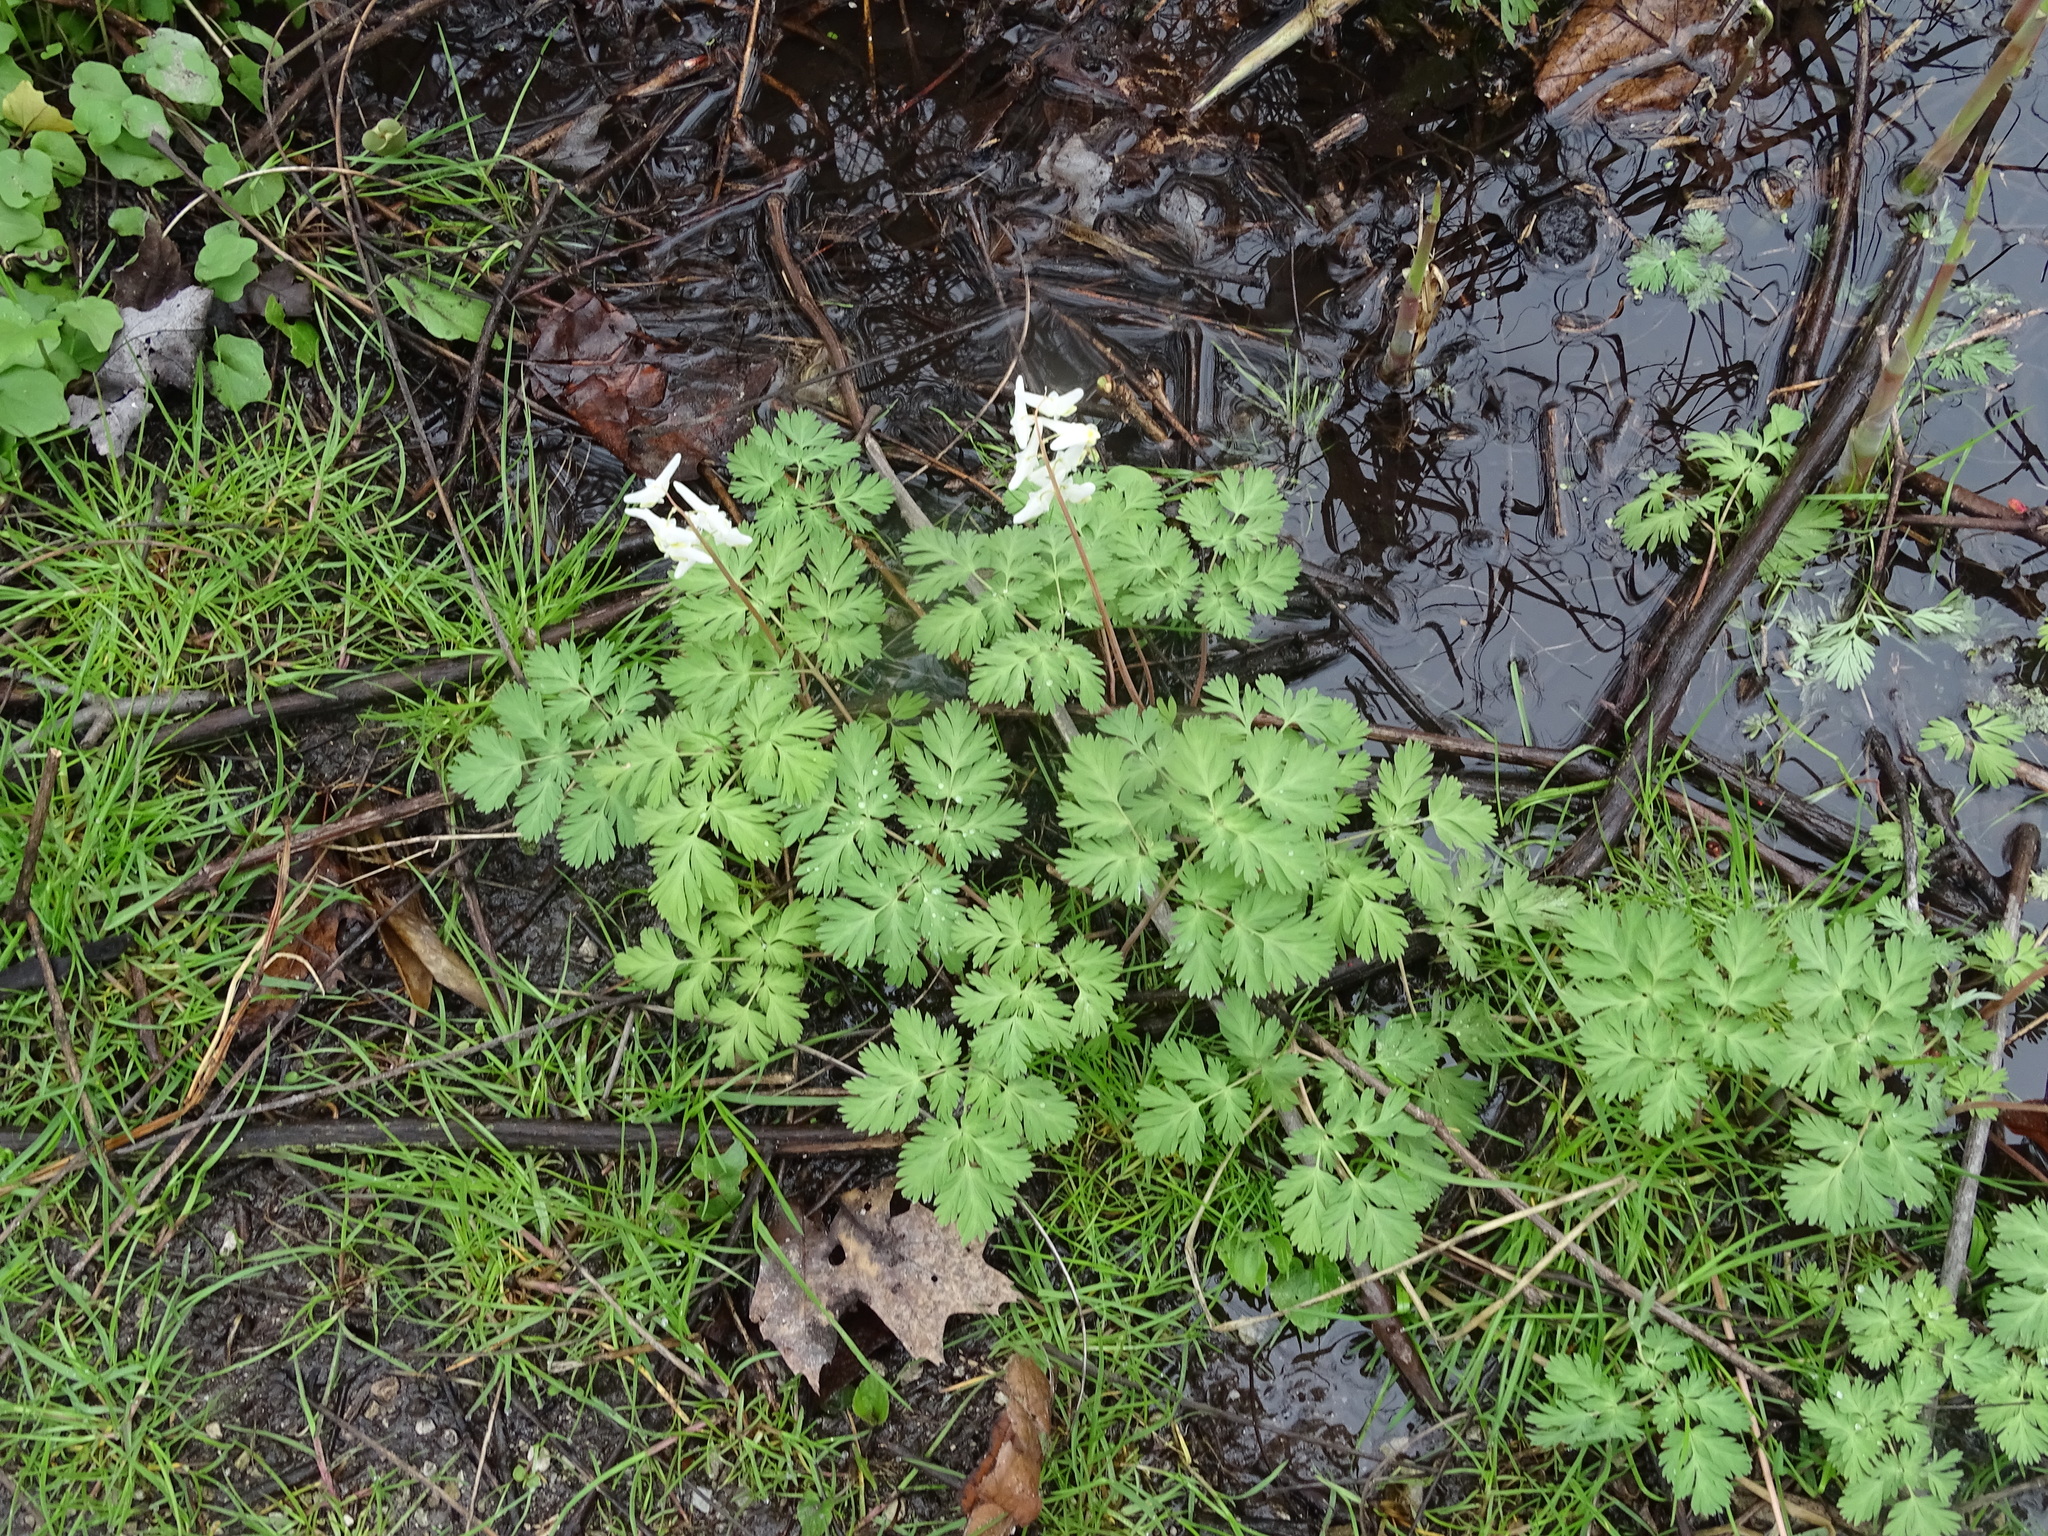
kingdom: Plantae
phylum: Tracheophyta
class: Magnoliopsida
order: Ranunculales
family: Papaveraceae
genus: Dicentra
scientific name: Dicentra cucullaria
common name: Dutchman's breeches
